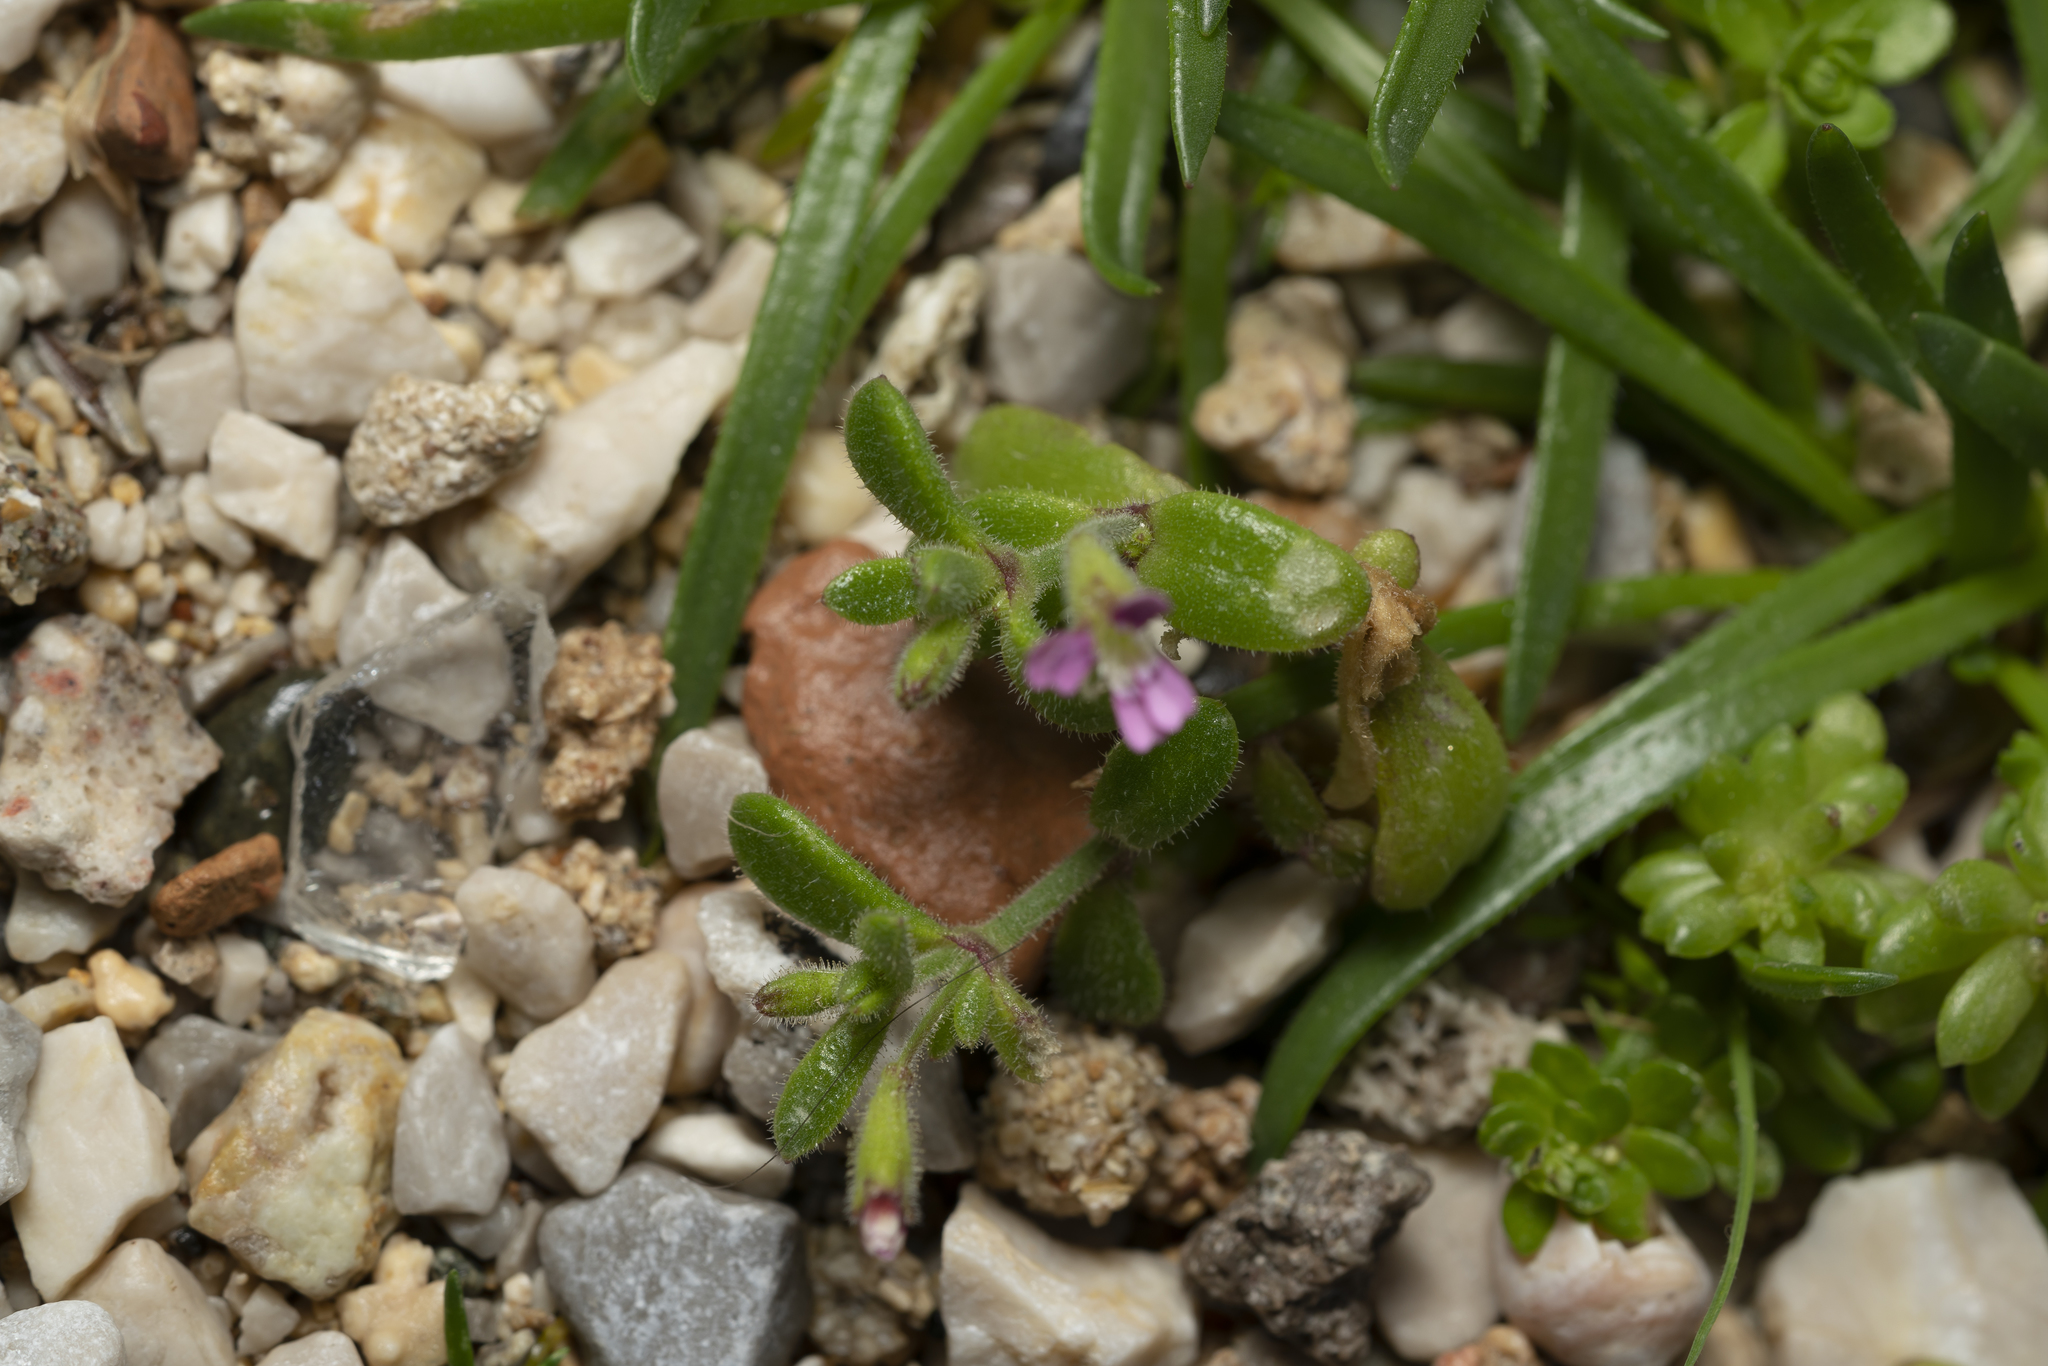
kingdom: Plantae
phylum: Tracheophyta
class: Magnoliopsida
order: Caryophyllales
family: Caryophyllaceae
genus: Silene
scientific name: Silene sedoides
